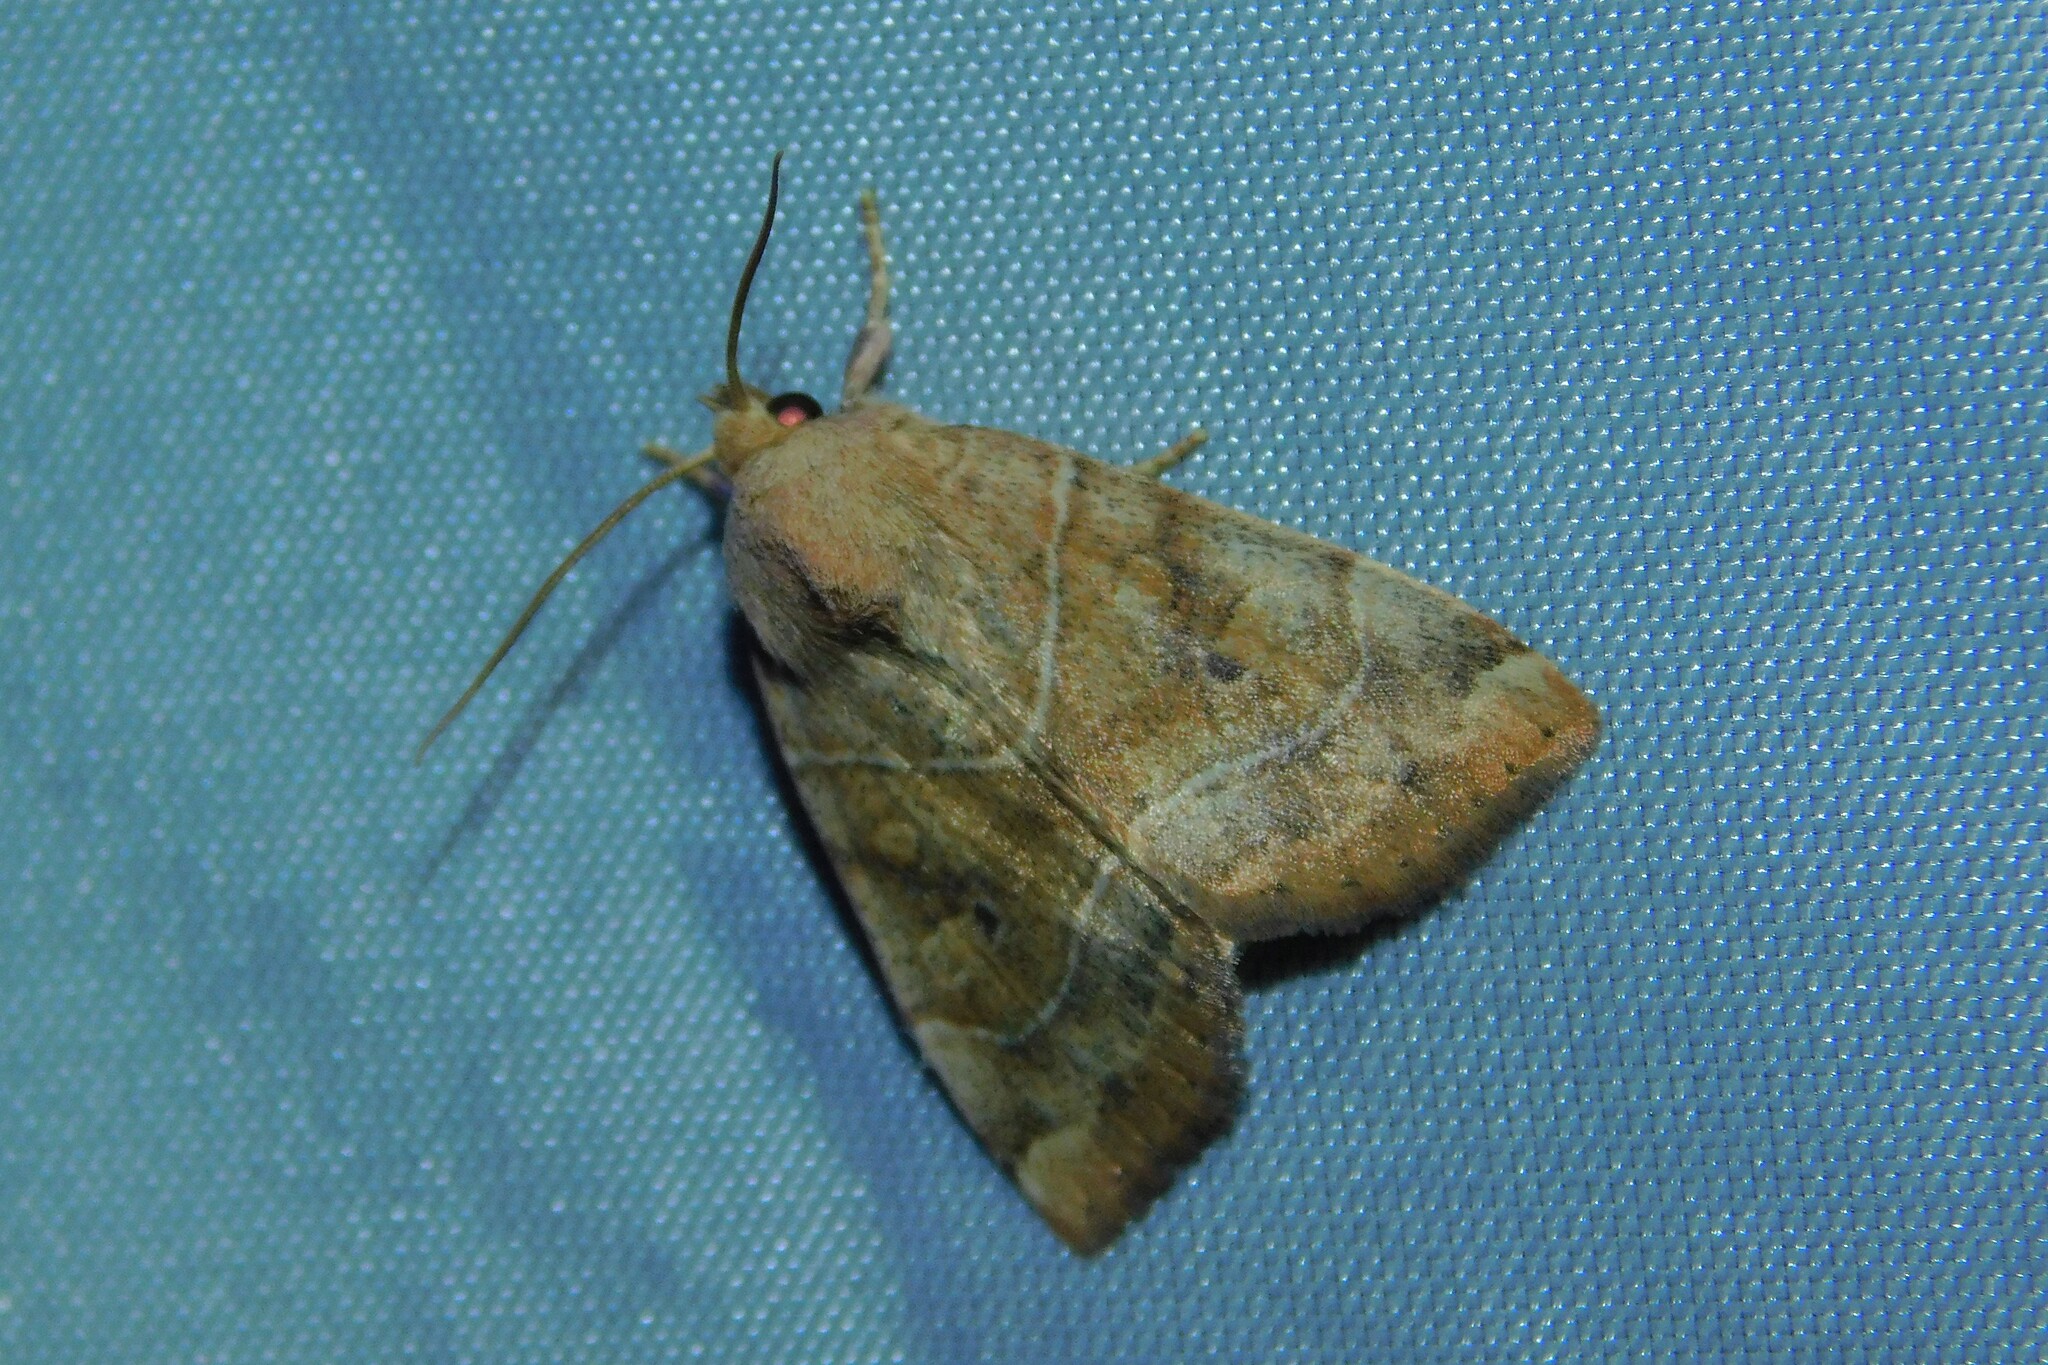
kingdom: Animalia
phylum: Arthropoda
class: Insecta
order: Lepidoptera
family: Noctuidae
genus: Cosmia
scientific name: Cosmia trapezina
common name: Dun-bar
